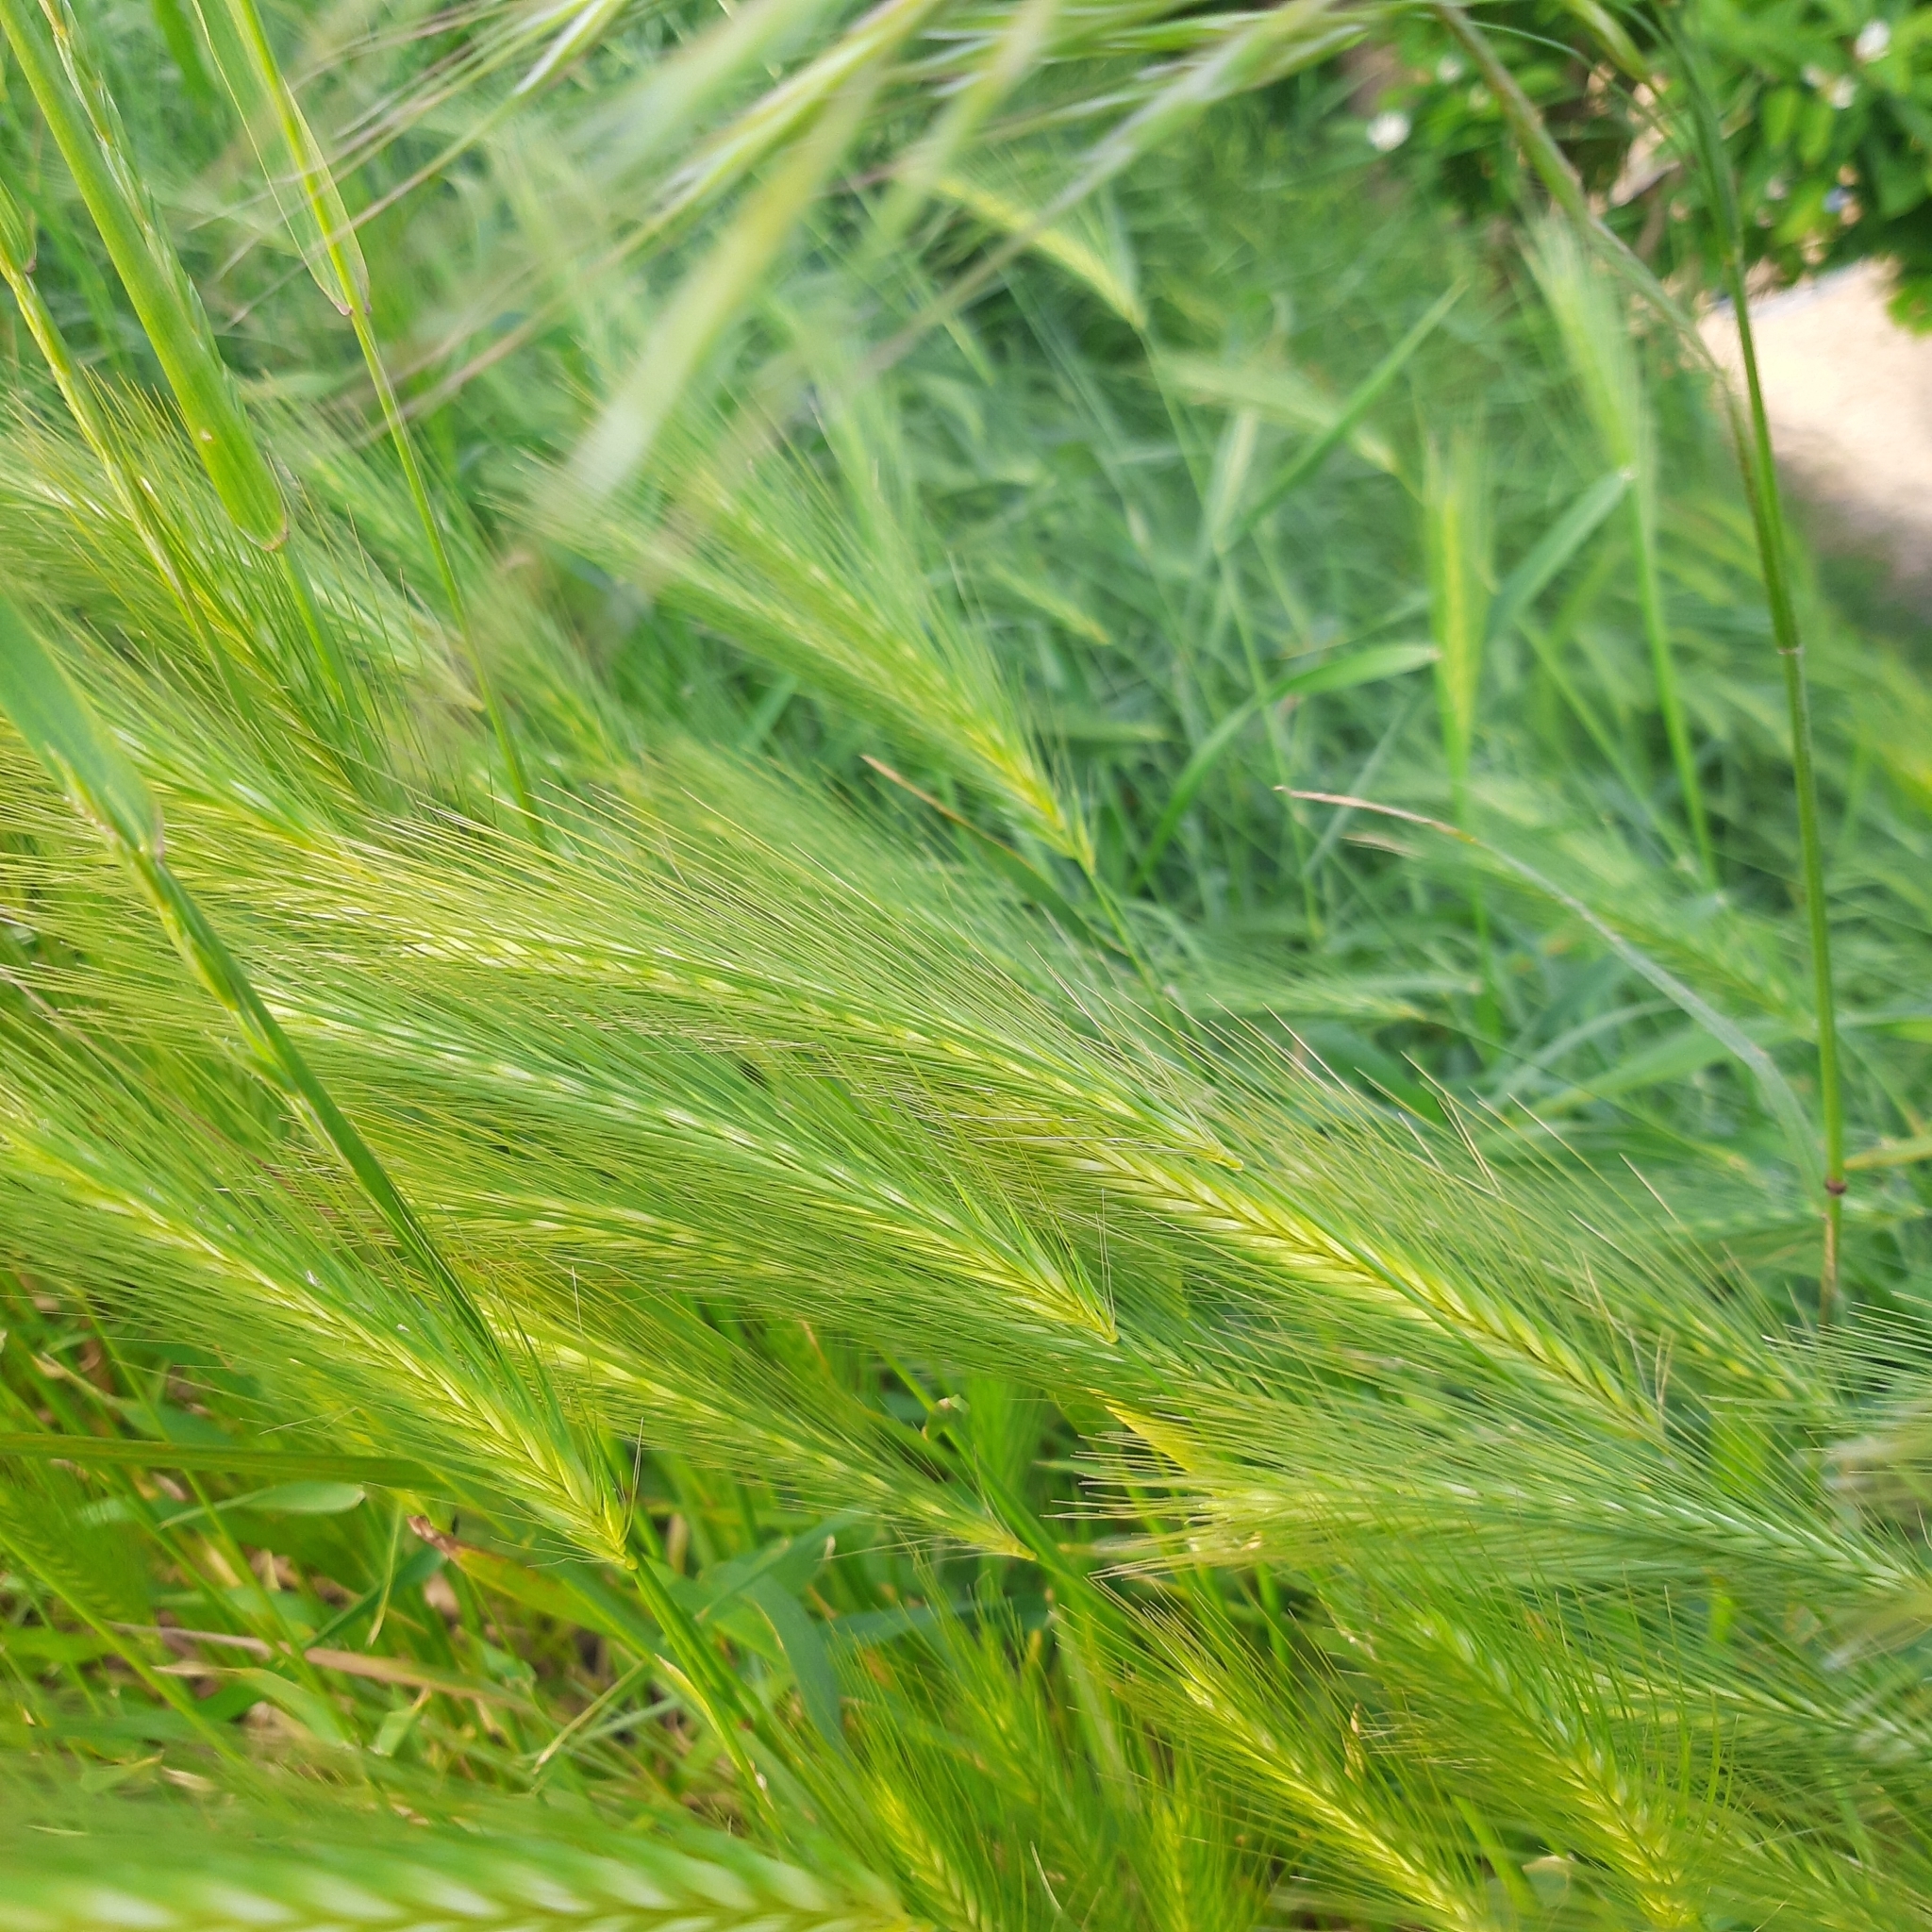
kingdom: Plantae
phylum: Tracheophyta
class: Liliopsida
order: Poales
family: Poaceae
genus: Hordeum
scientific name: Hordeum murinum
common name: Wall barley
